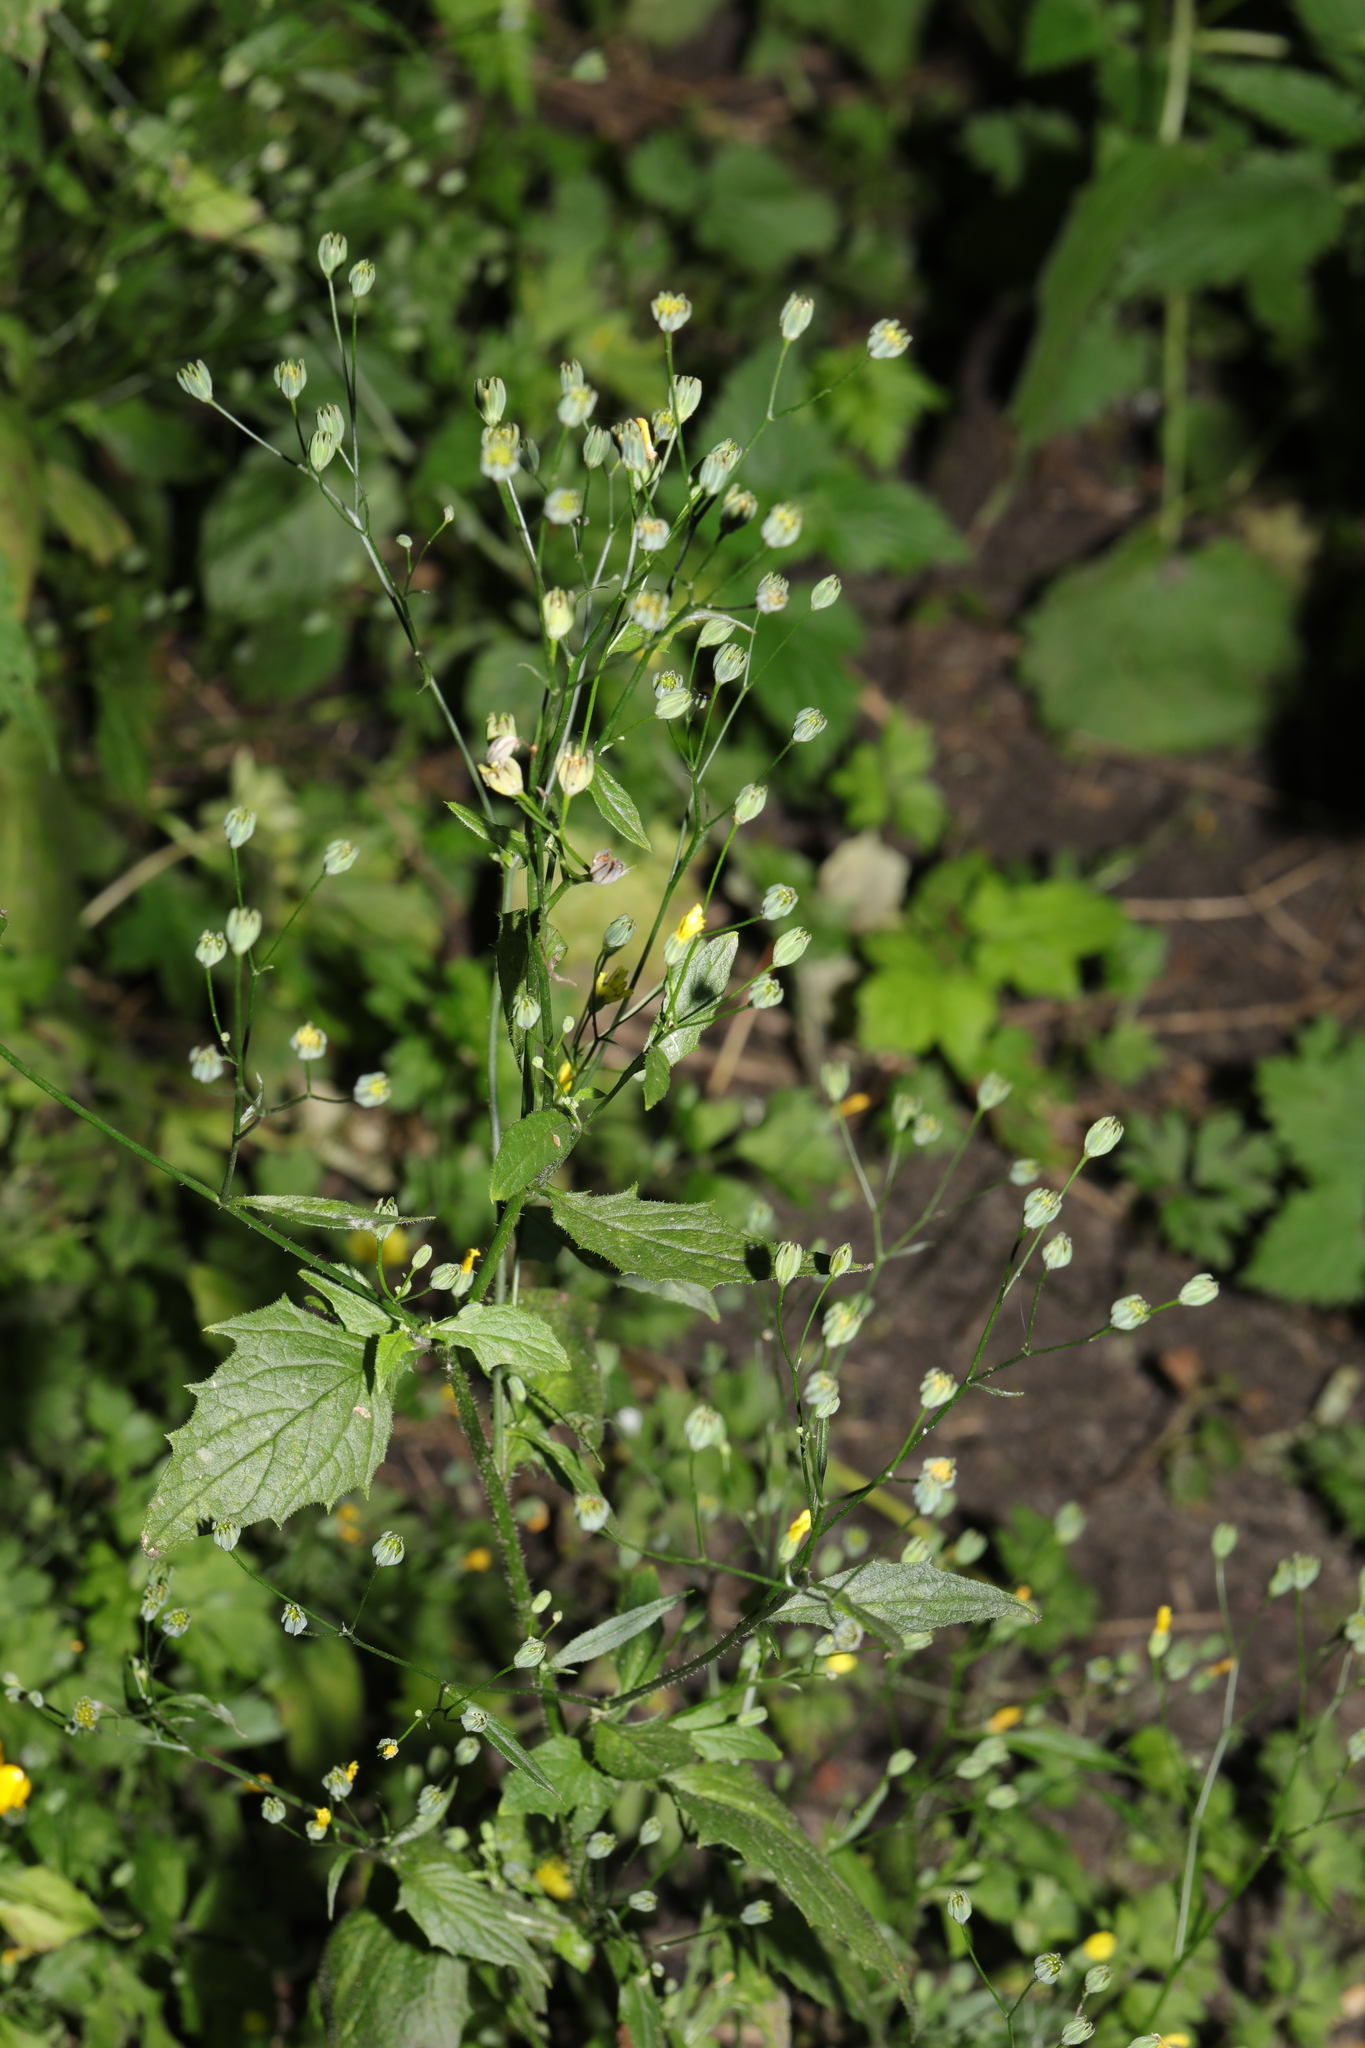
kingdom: Plantae
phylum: Tracheophyta
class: Magnoliopsida
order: Asterales
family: Asteraceae
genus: Lapsana
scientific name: Lapsana communis
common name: Nipplewort
